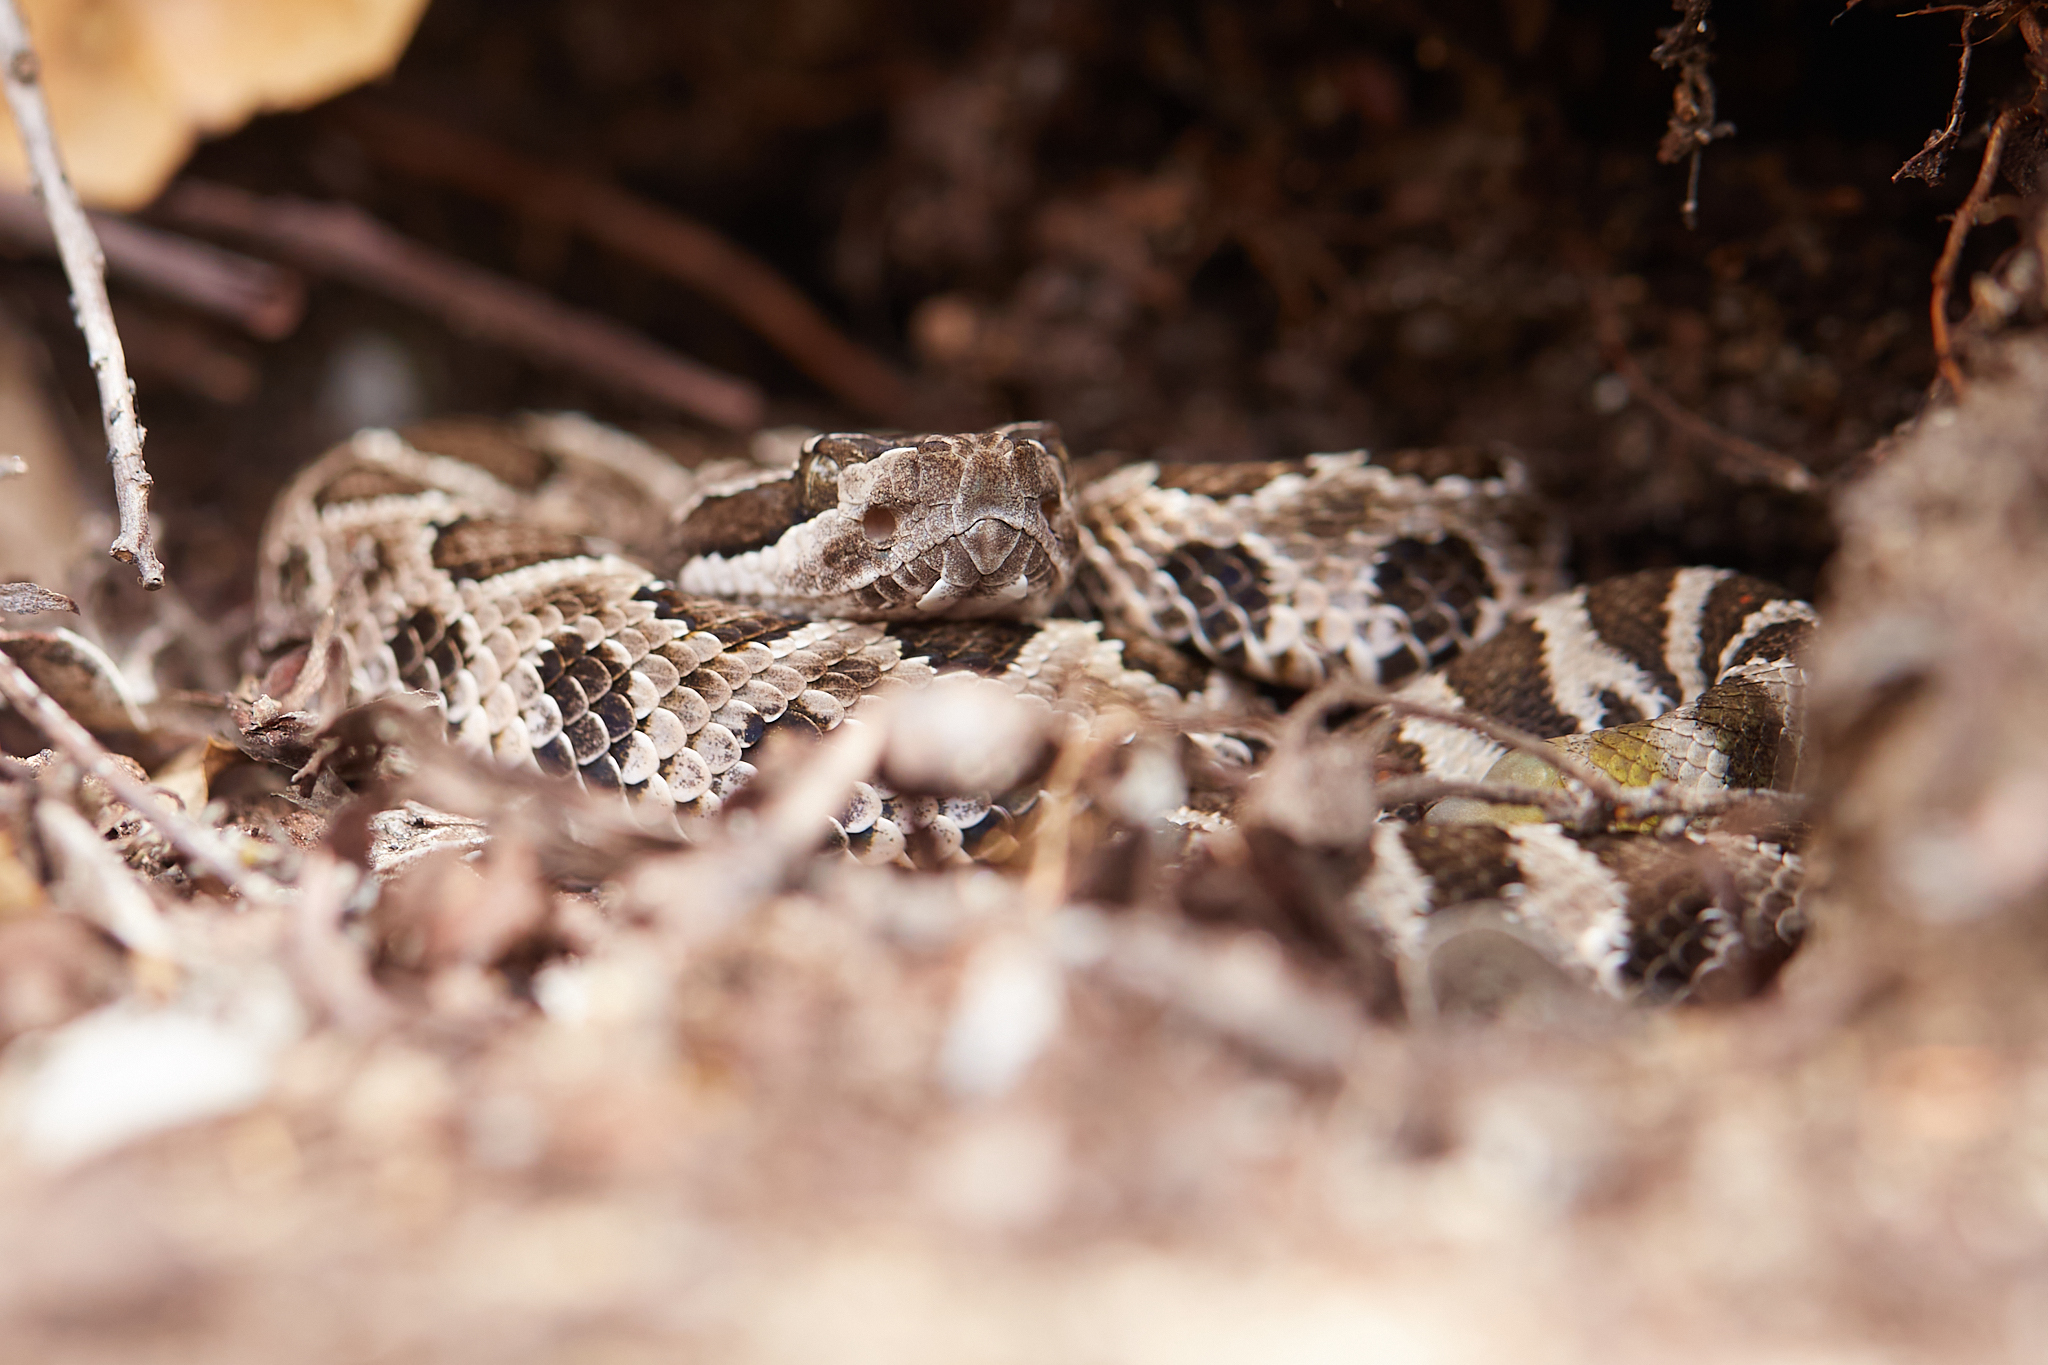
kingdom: Animalia
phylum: Chordata
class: Squamata
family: Viperidae
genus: Crotalus
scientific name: Crotalus oreganus
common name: Abyssus
